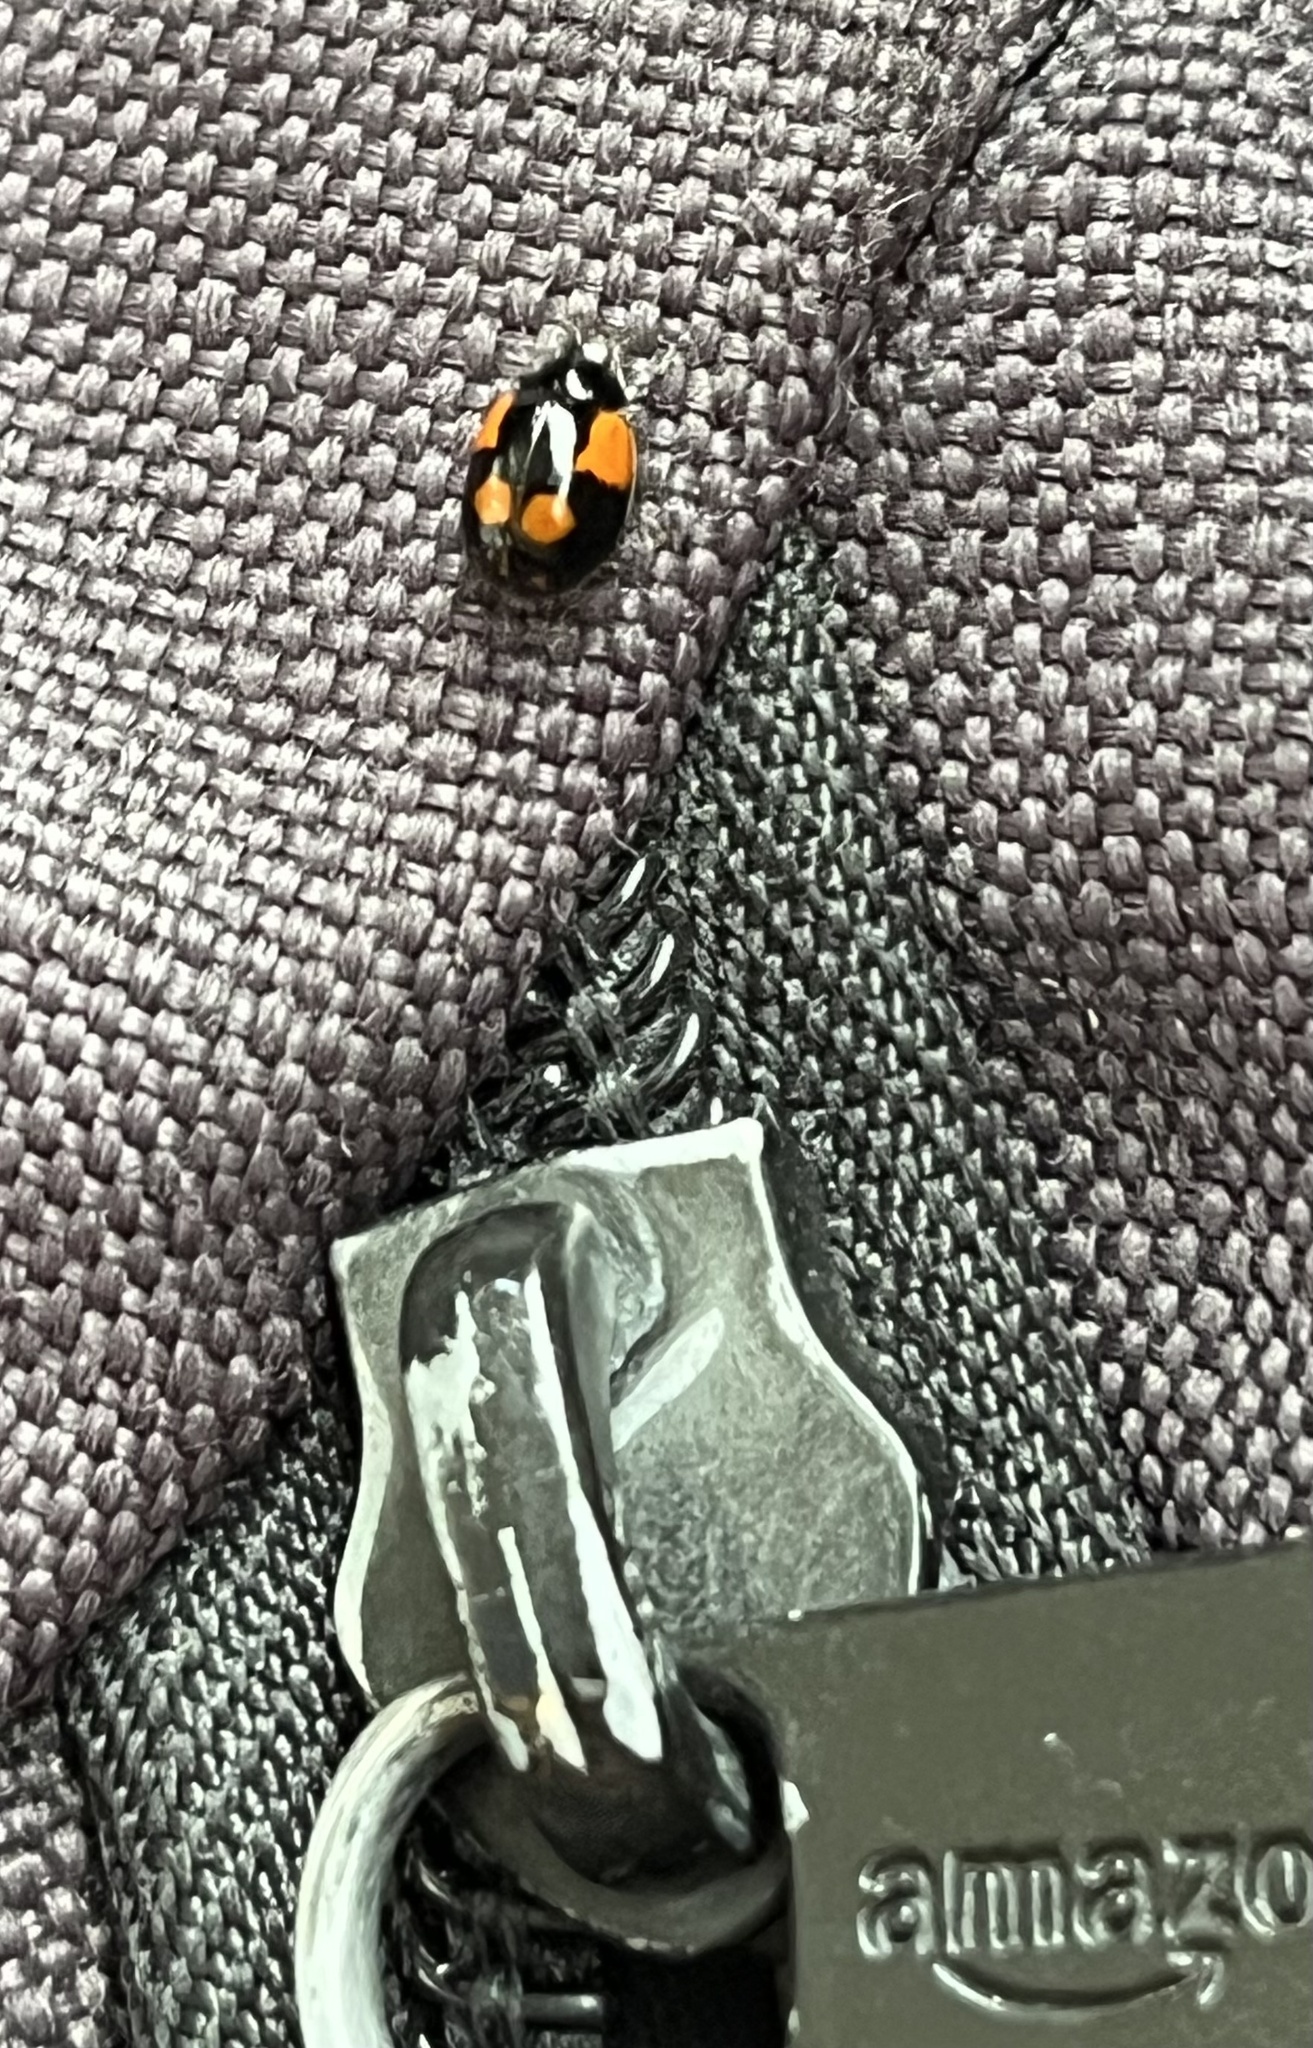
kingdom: Animalia
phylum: Arthropoda
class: Insecta
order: Coleoptera
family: Coccinellidae
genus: Adalia
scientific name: Adalia bipunctata
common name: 2-spot ladybird
